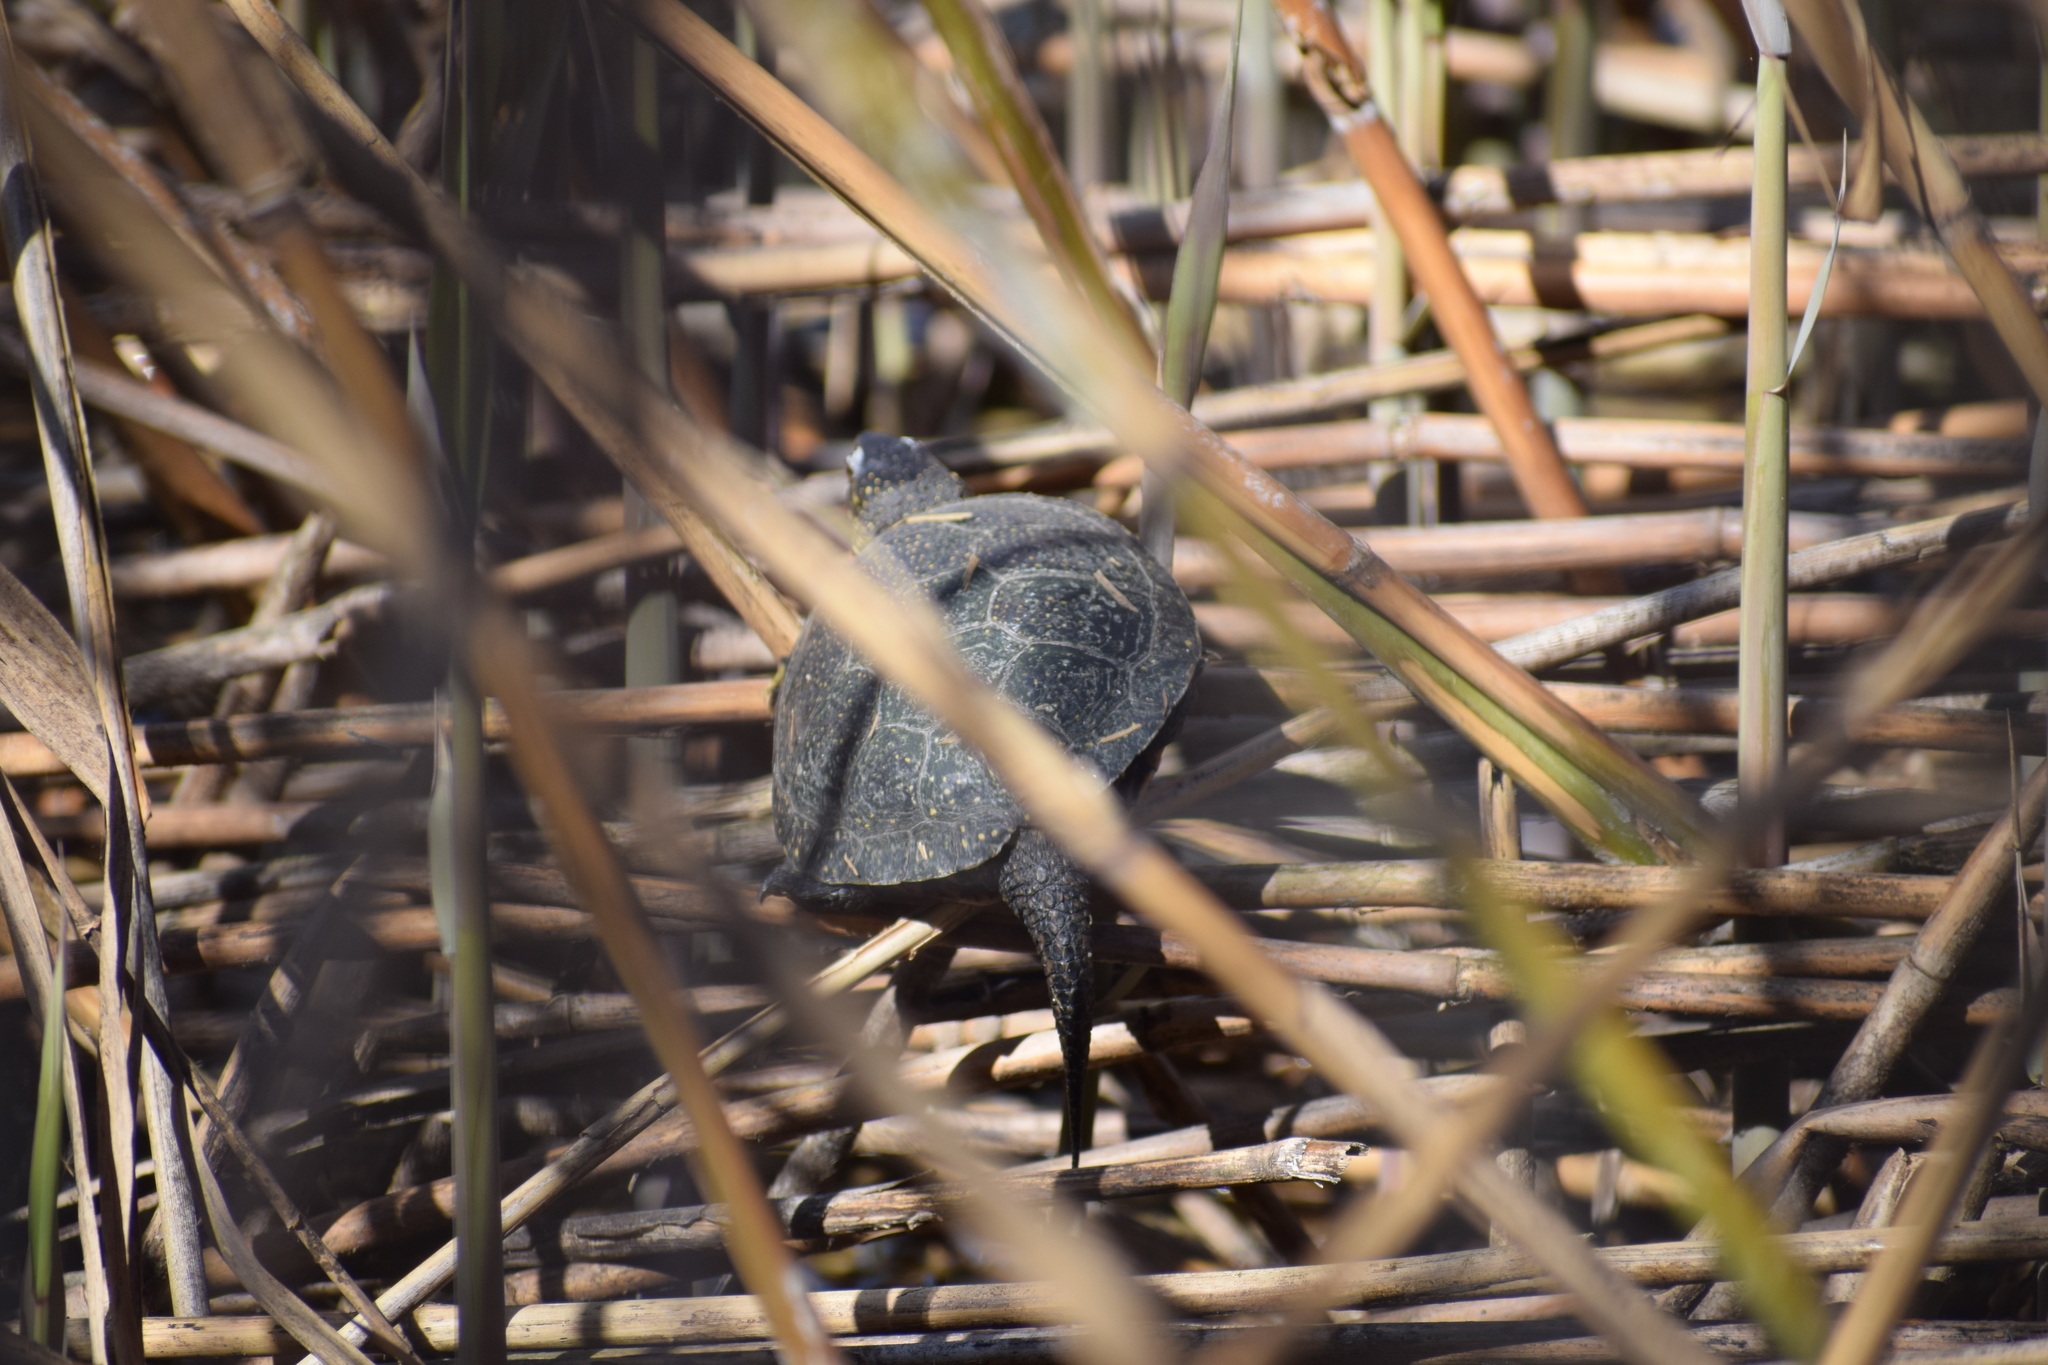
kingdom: Animalia
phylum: Chordata
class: Testudines
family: Emydidae
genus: Emys
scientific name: Emys orbicularis
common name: European pond turtle
